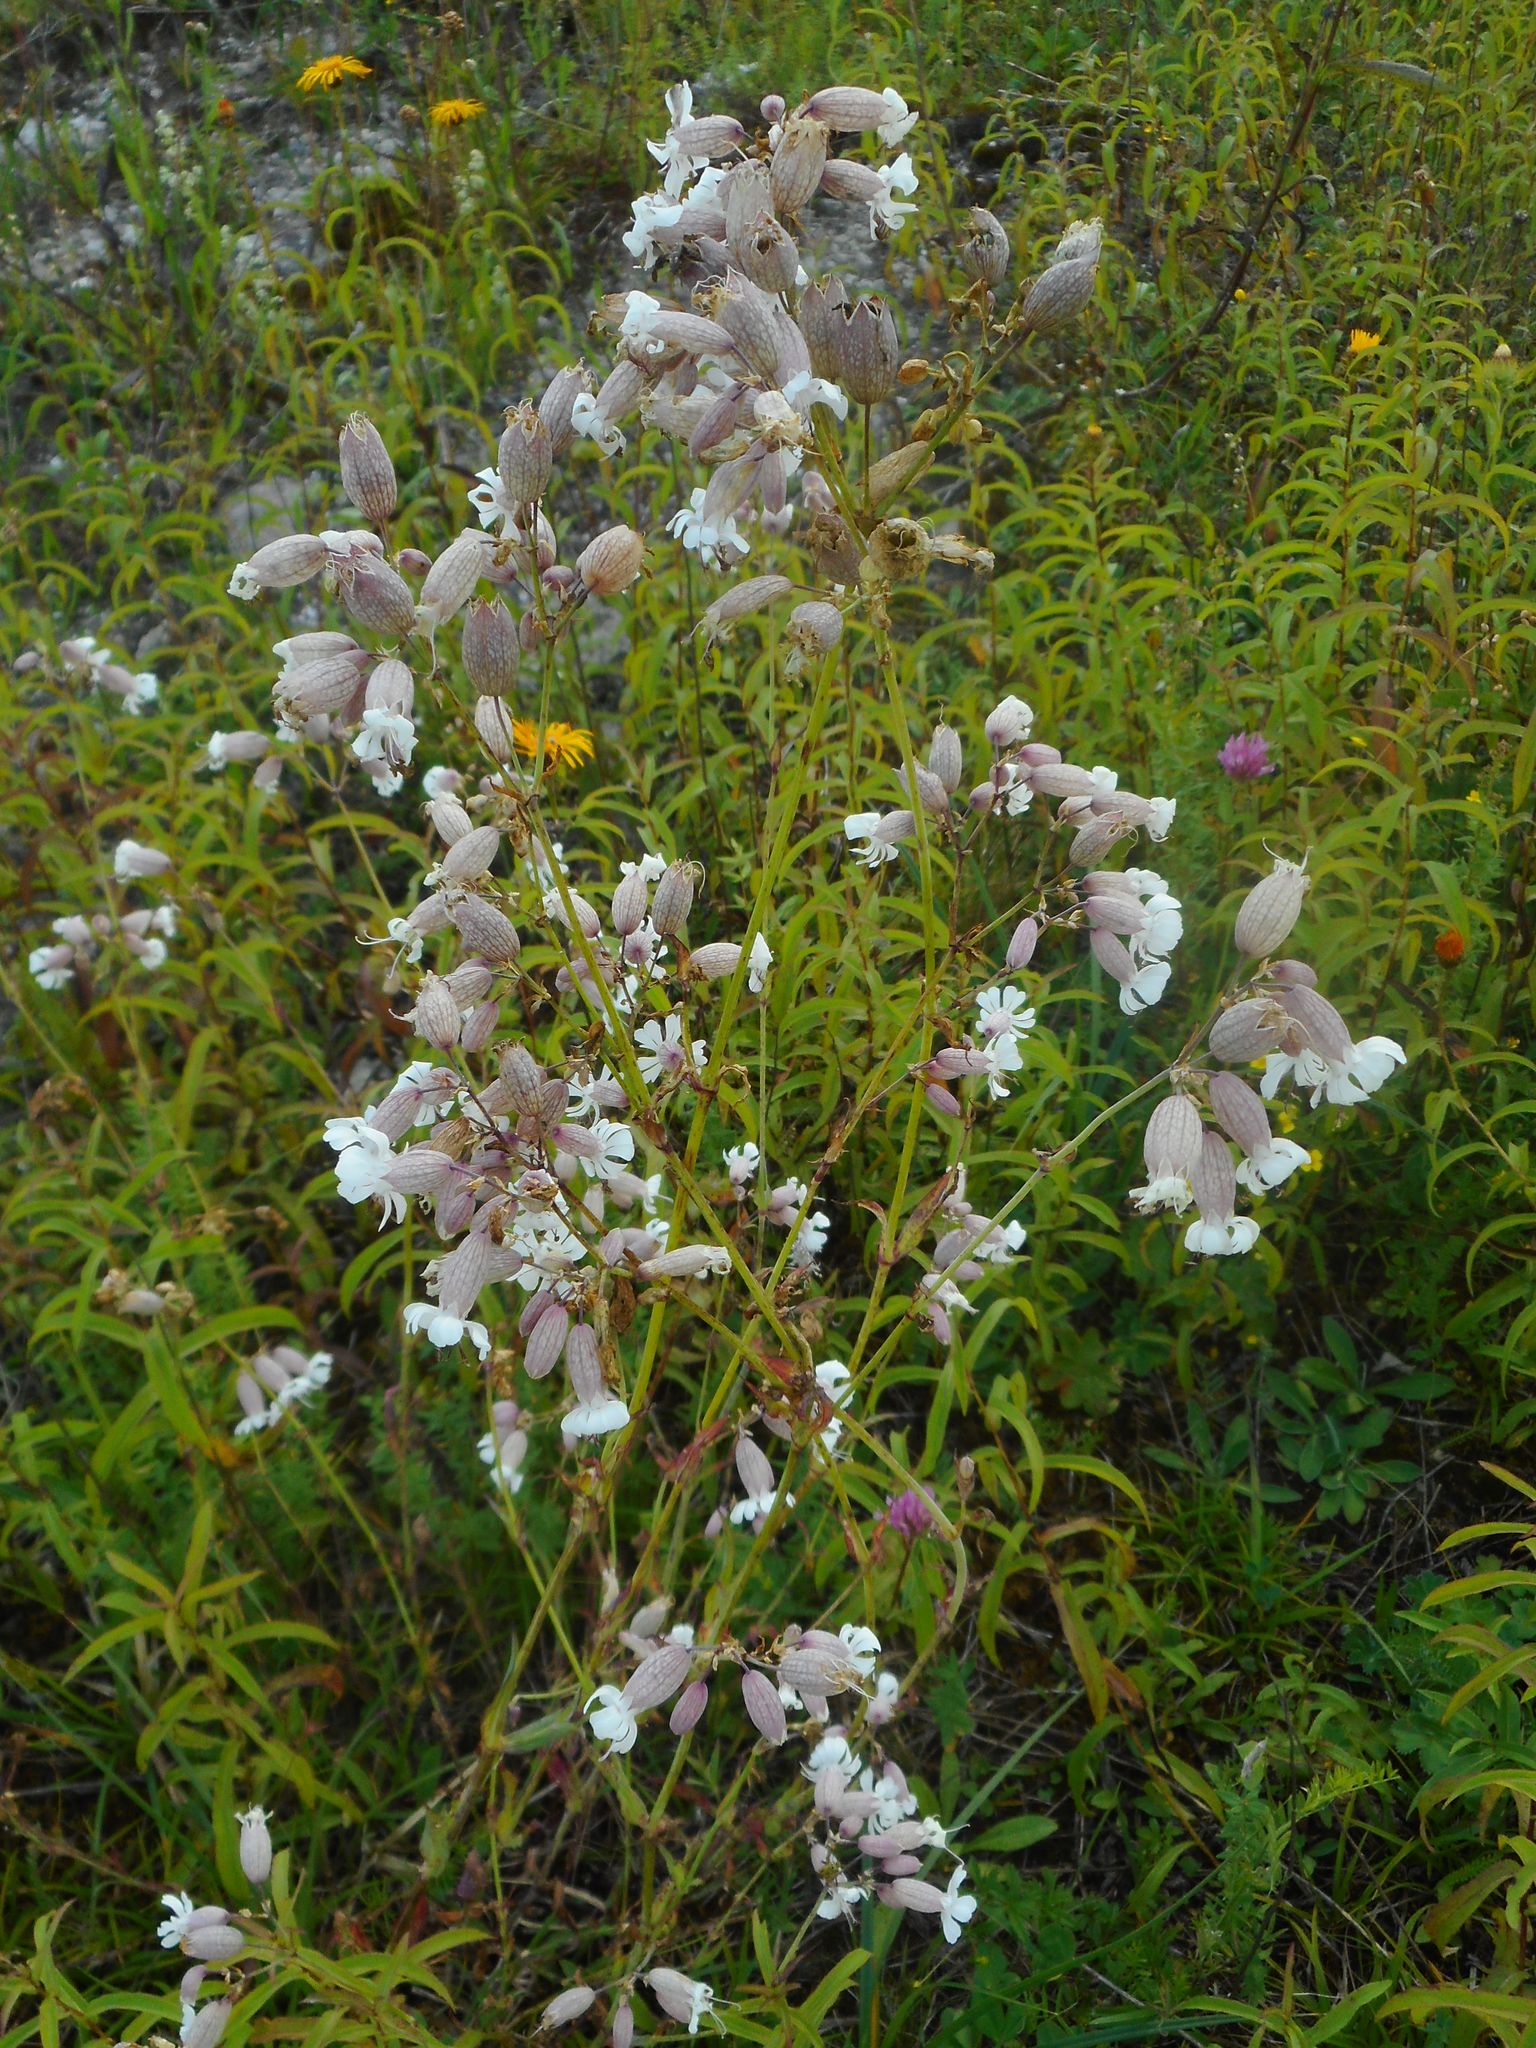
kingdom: Plantae
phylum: Tracheophyta
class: Magnoliopsida
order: Caryophyllales
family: Caryophyllaceae
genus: Silene
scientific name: Silene vulgaris
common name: Bladder campion
